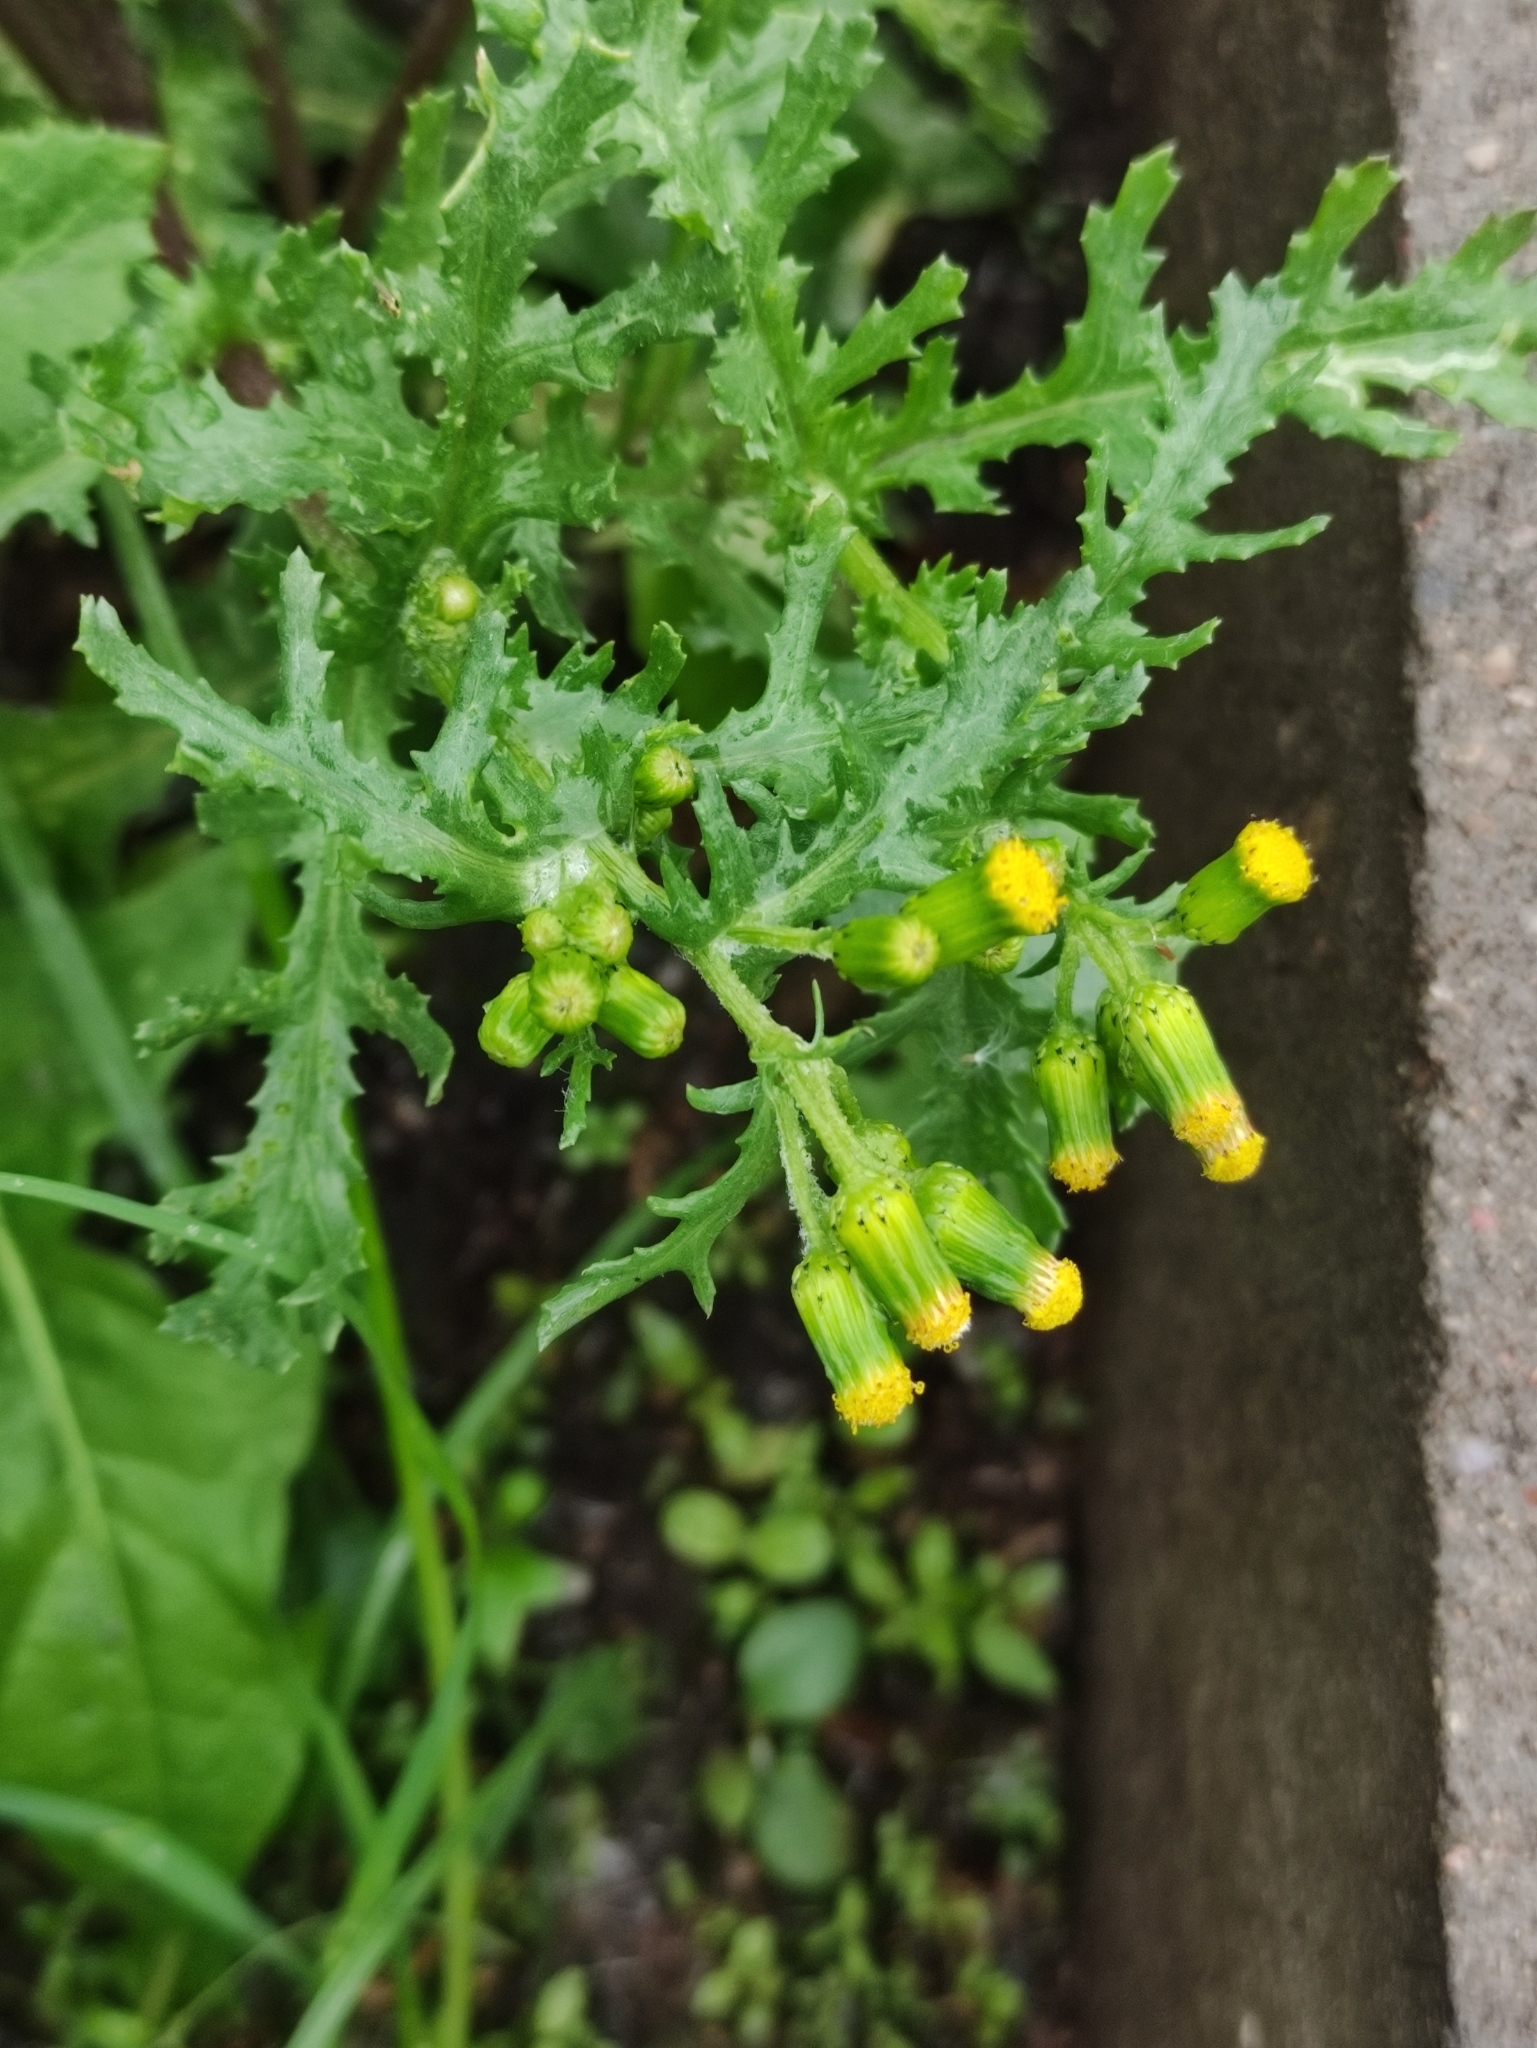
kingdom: Plantae
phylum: Tracheophyta
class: Magnoliopsida
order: Asterales
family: Asteraceae
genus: Senecio
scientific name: Senecio vulgaris
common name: Old-man-in-the-spring
